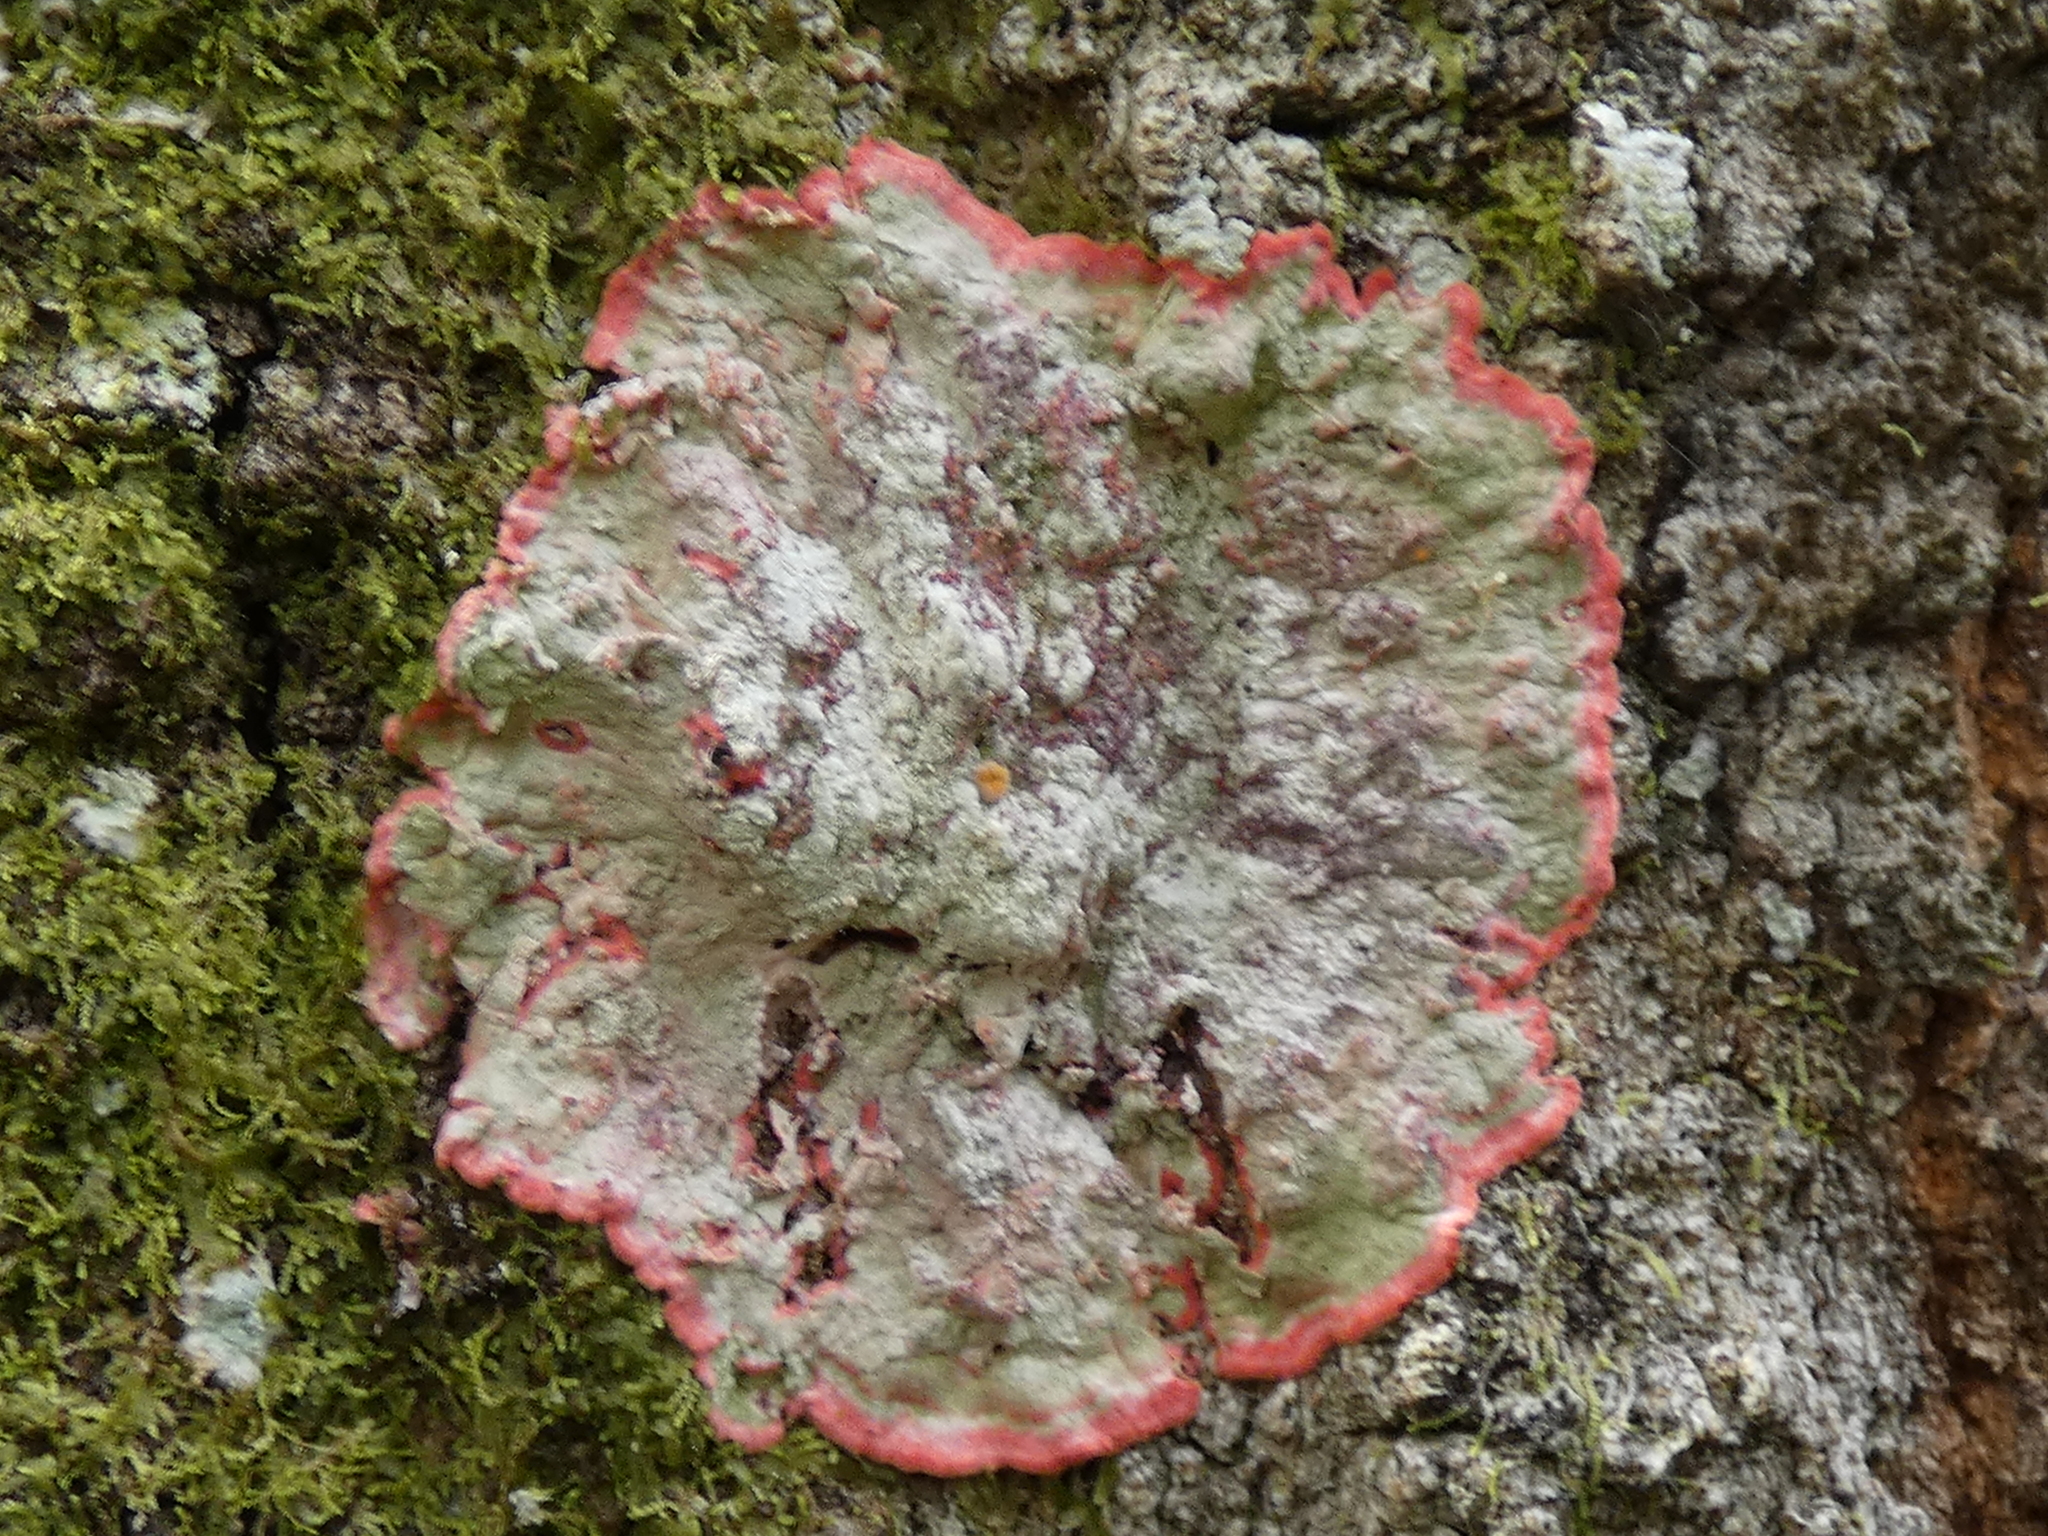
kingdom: Fungi
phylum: Ascomycota
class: Arthoniomycetes
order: Arthoniales
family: Arthoniaceae
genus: Herpothallon
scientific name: Herpothallon rubrocinctum
